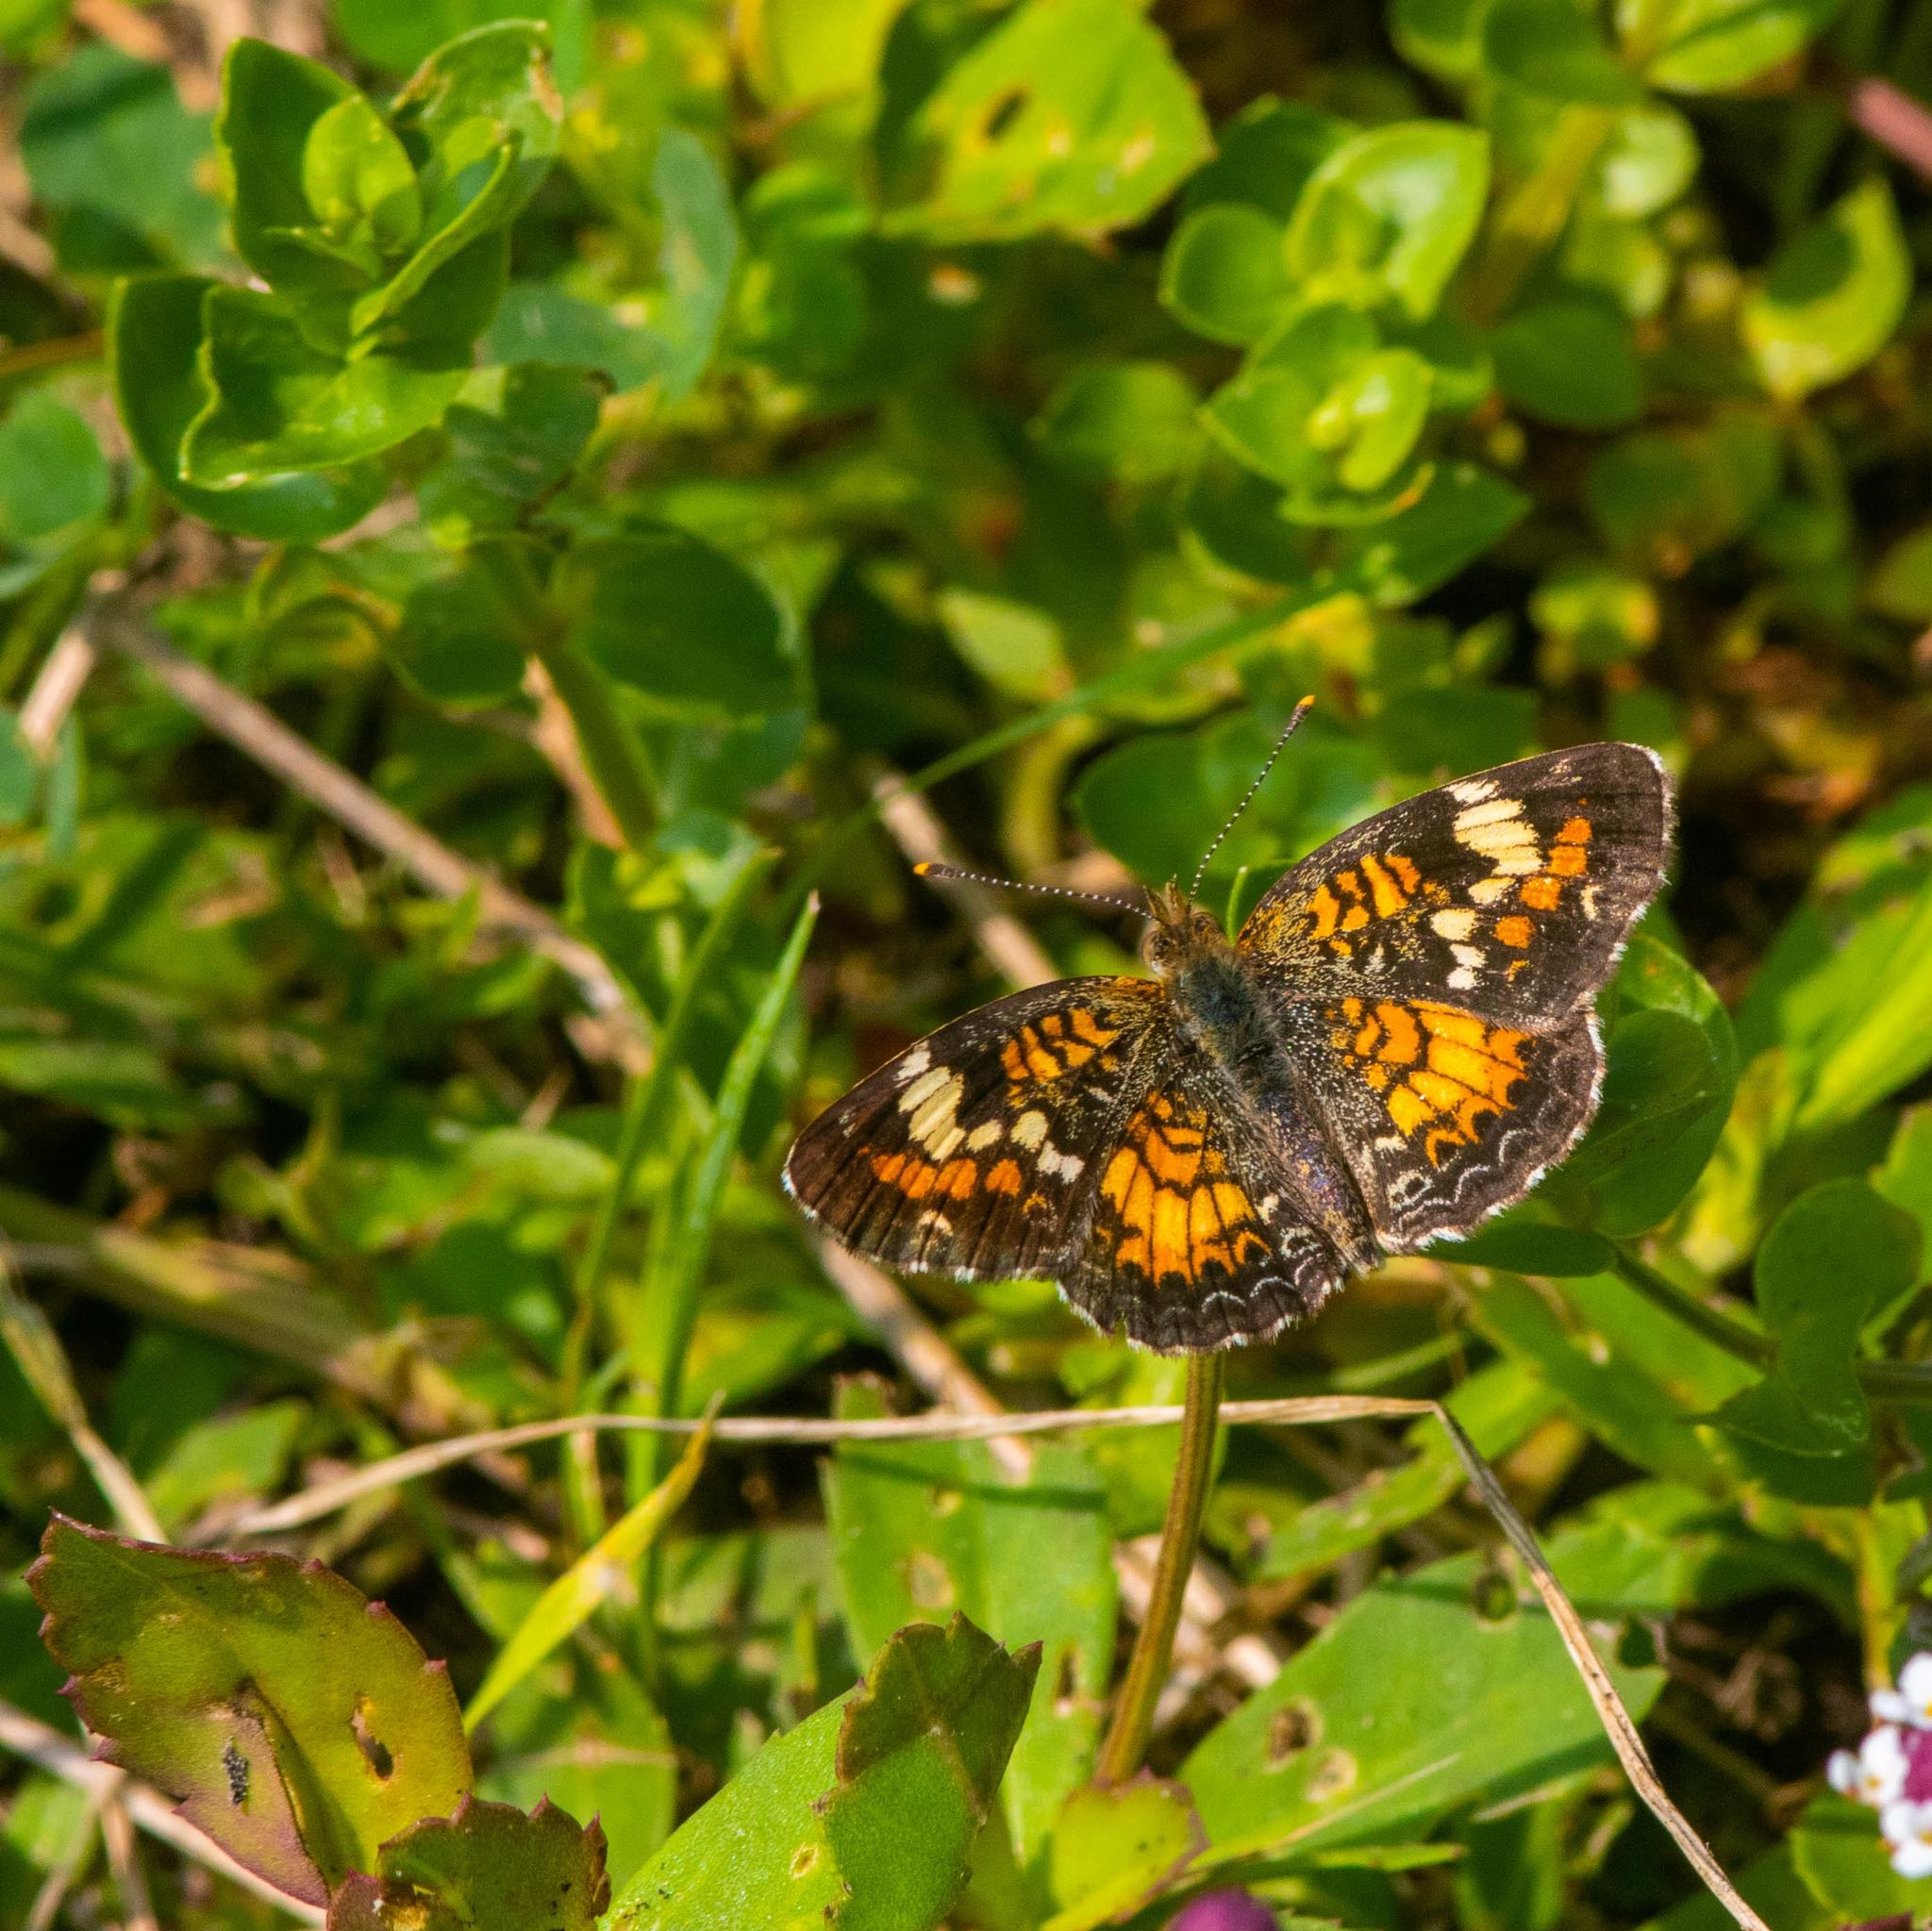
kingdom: Animalia
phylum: Arthropoda
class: Insecta
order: Lepidoptera
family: Nymphalidae
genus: Phyciodes
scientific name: Phyciodes phaon
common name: Phaon crescent
